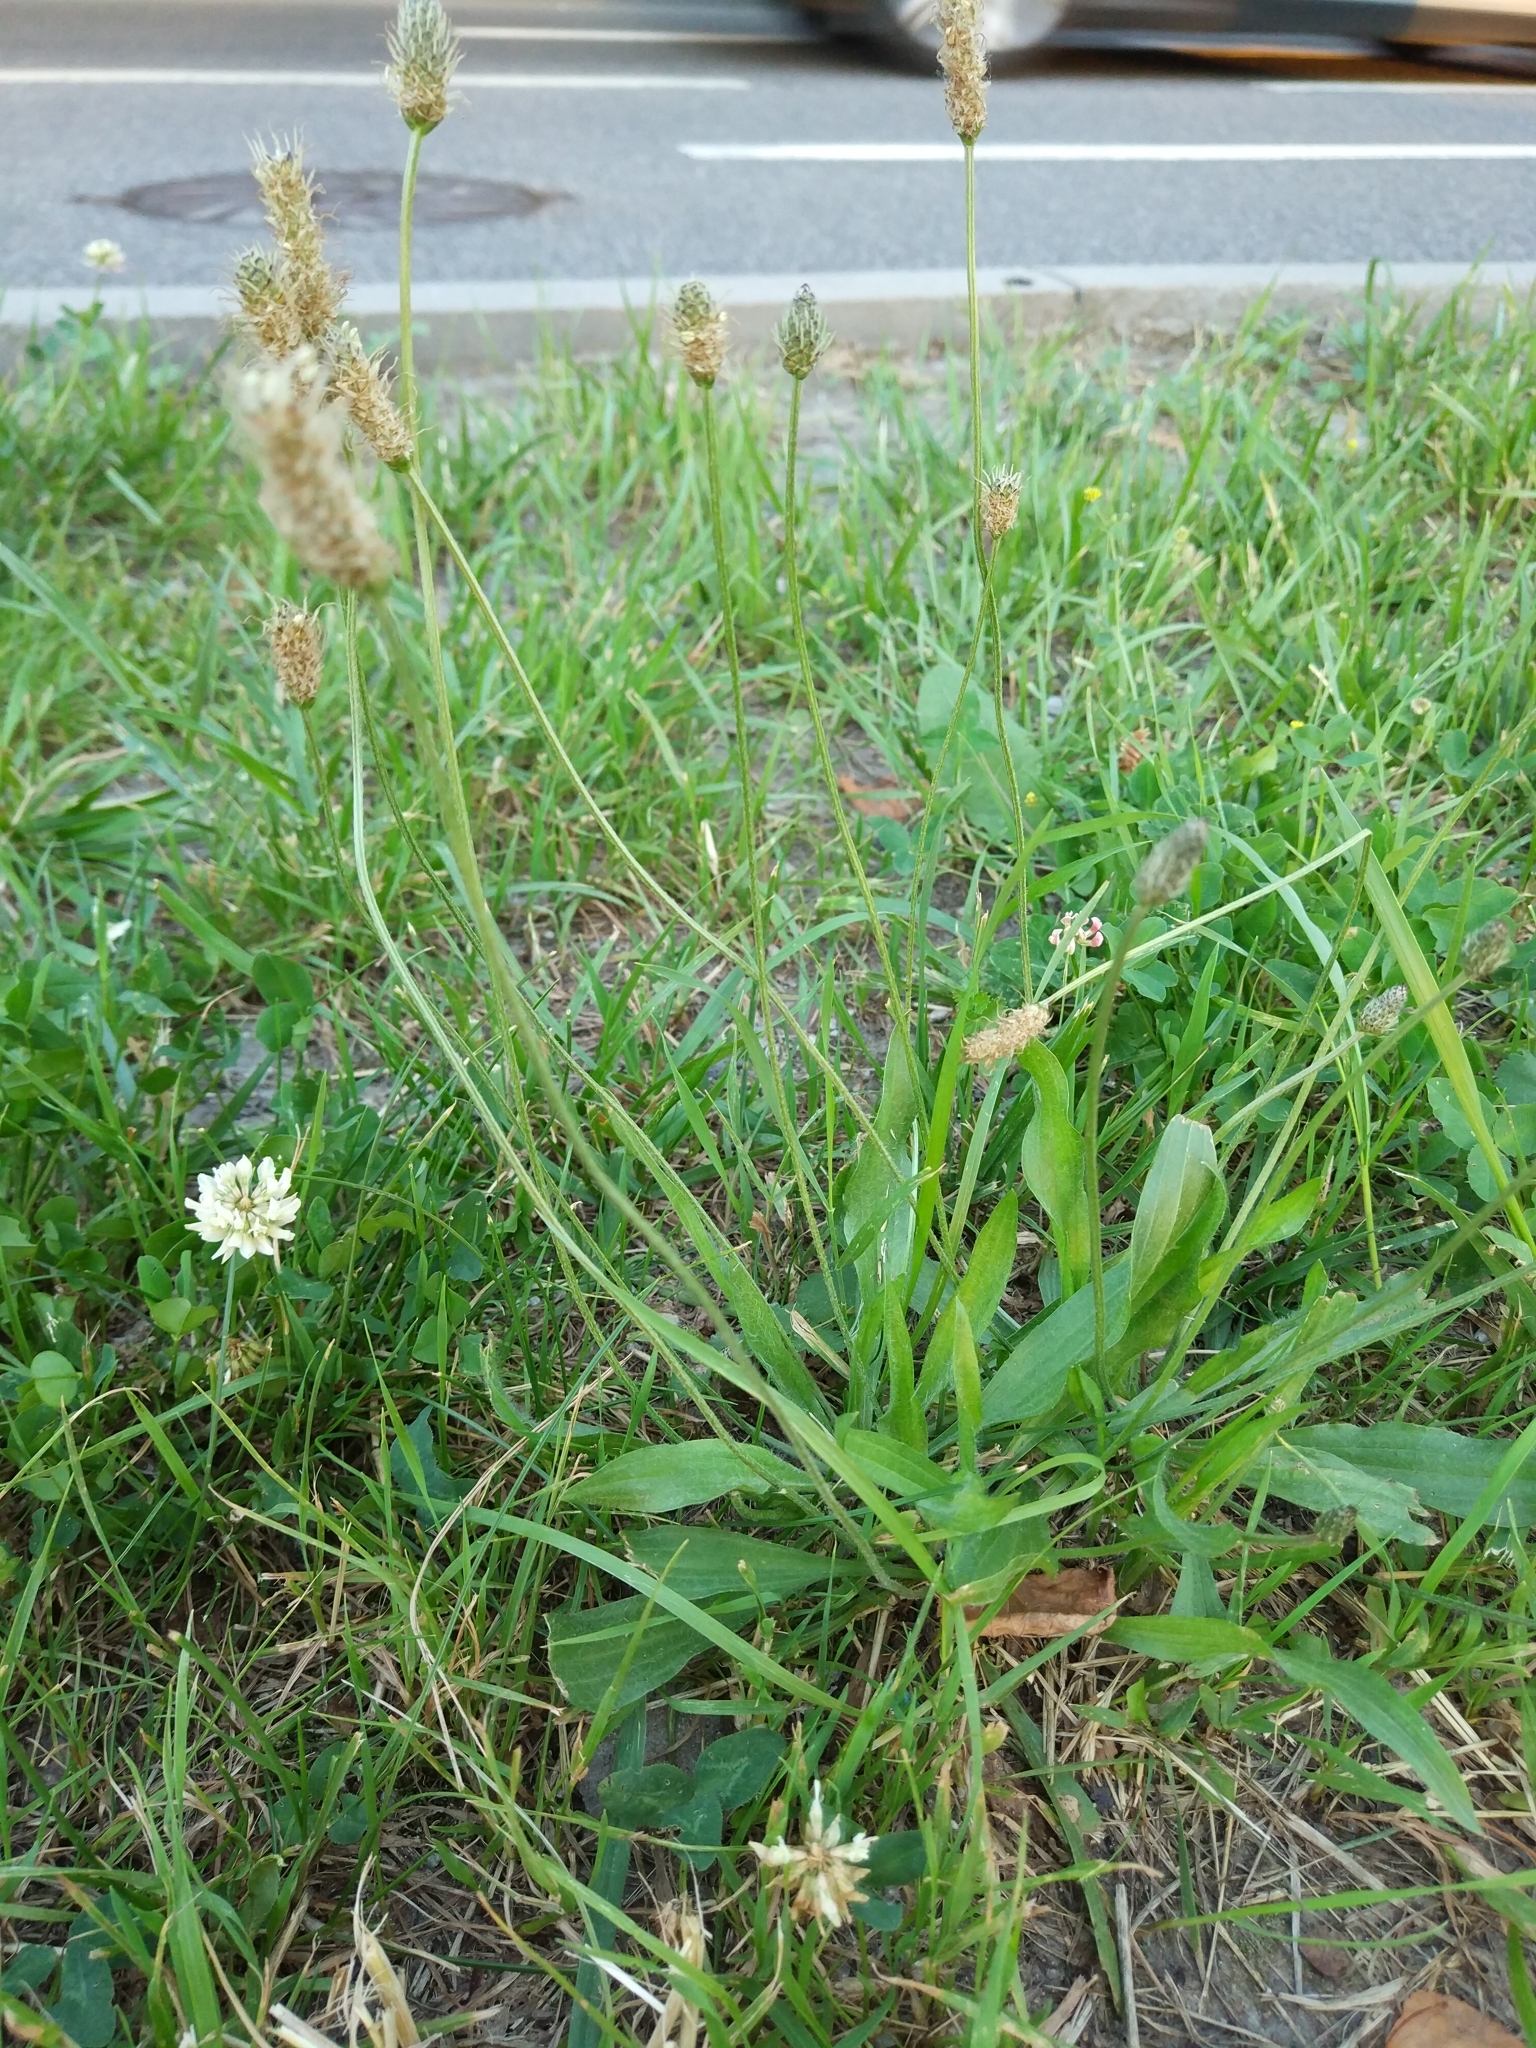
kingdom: Plantae
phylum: Tracheophyta
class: Magnoliopsida
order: Lamiales
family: Plantaginaceae
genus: Plantago
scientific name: Plantago lanceolata
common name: Ribwort plantain
